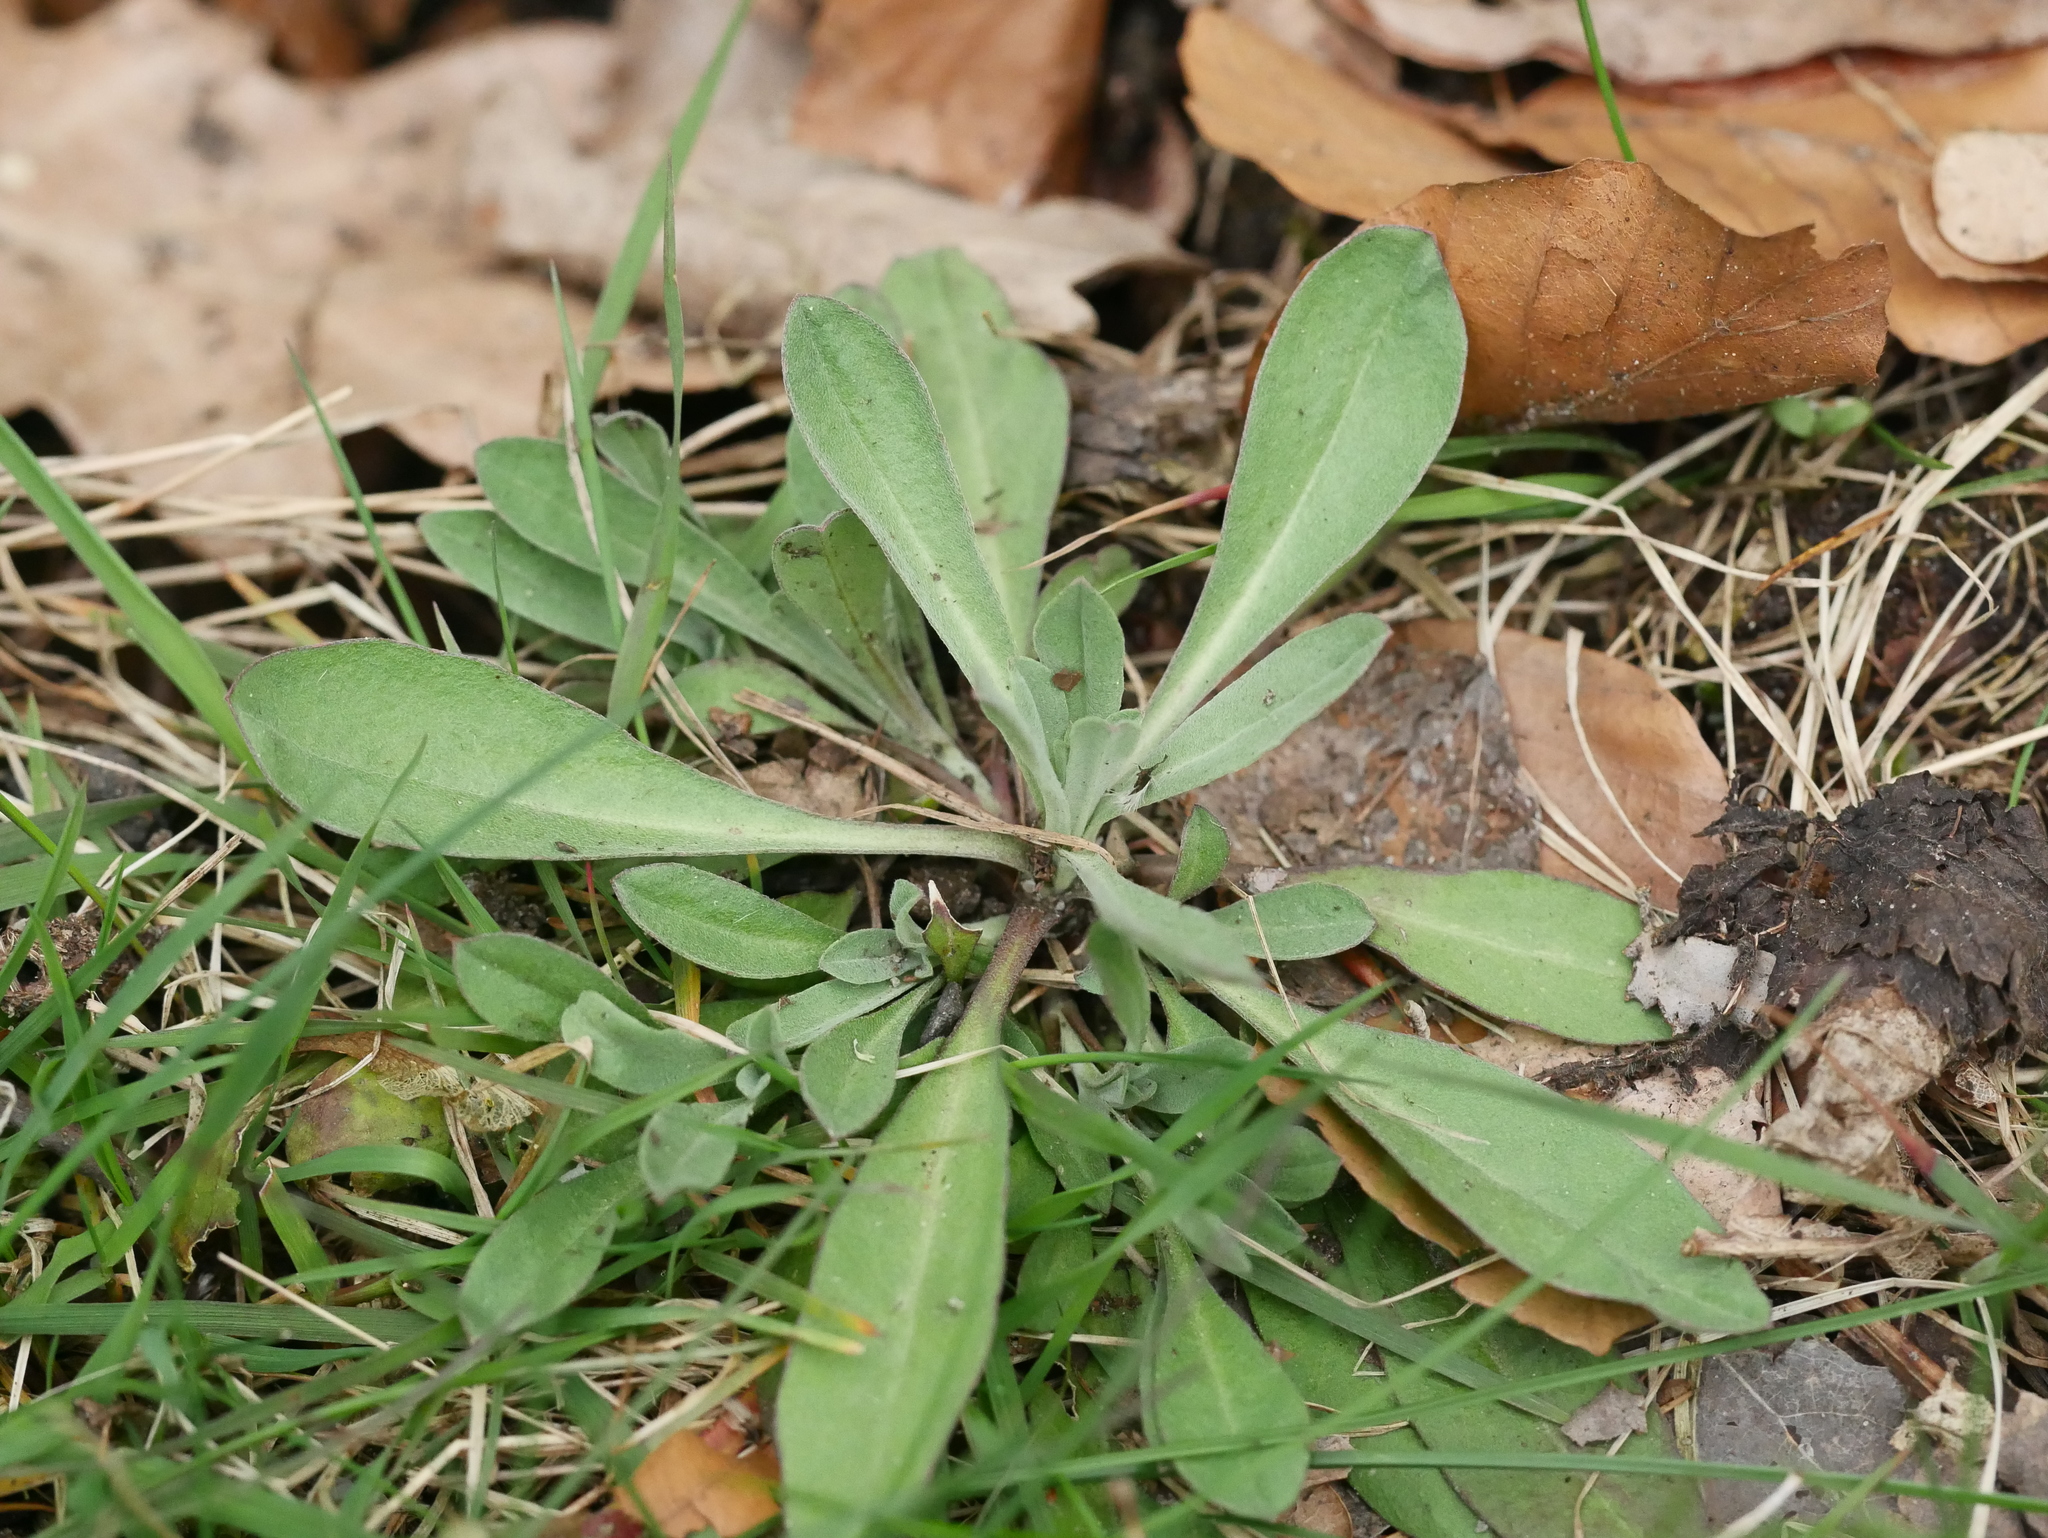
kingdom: Plantae
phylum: Tracheophyta
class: Magnoliopsida
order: Brassicales
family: Brassicaceae
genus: Berteroa
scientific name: Berteroa incana
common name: Hoary alison
